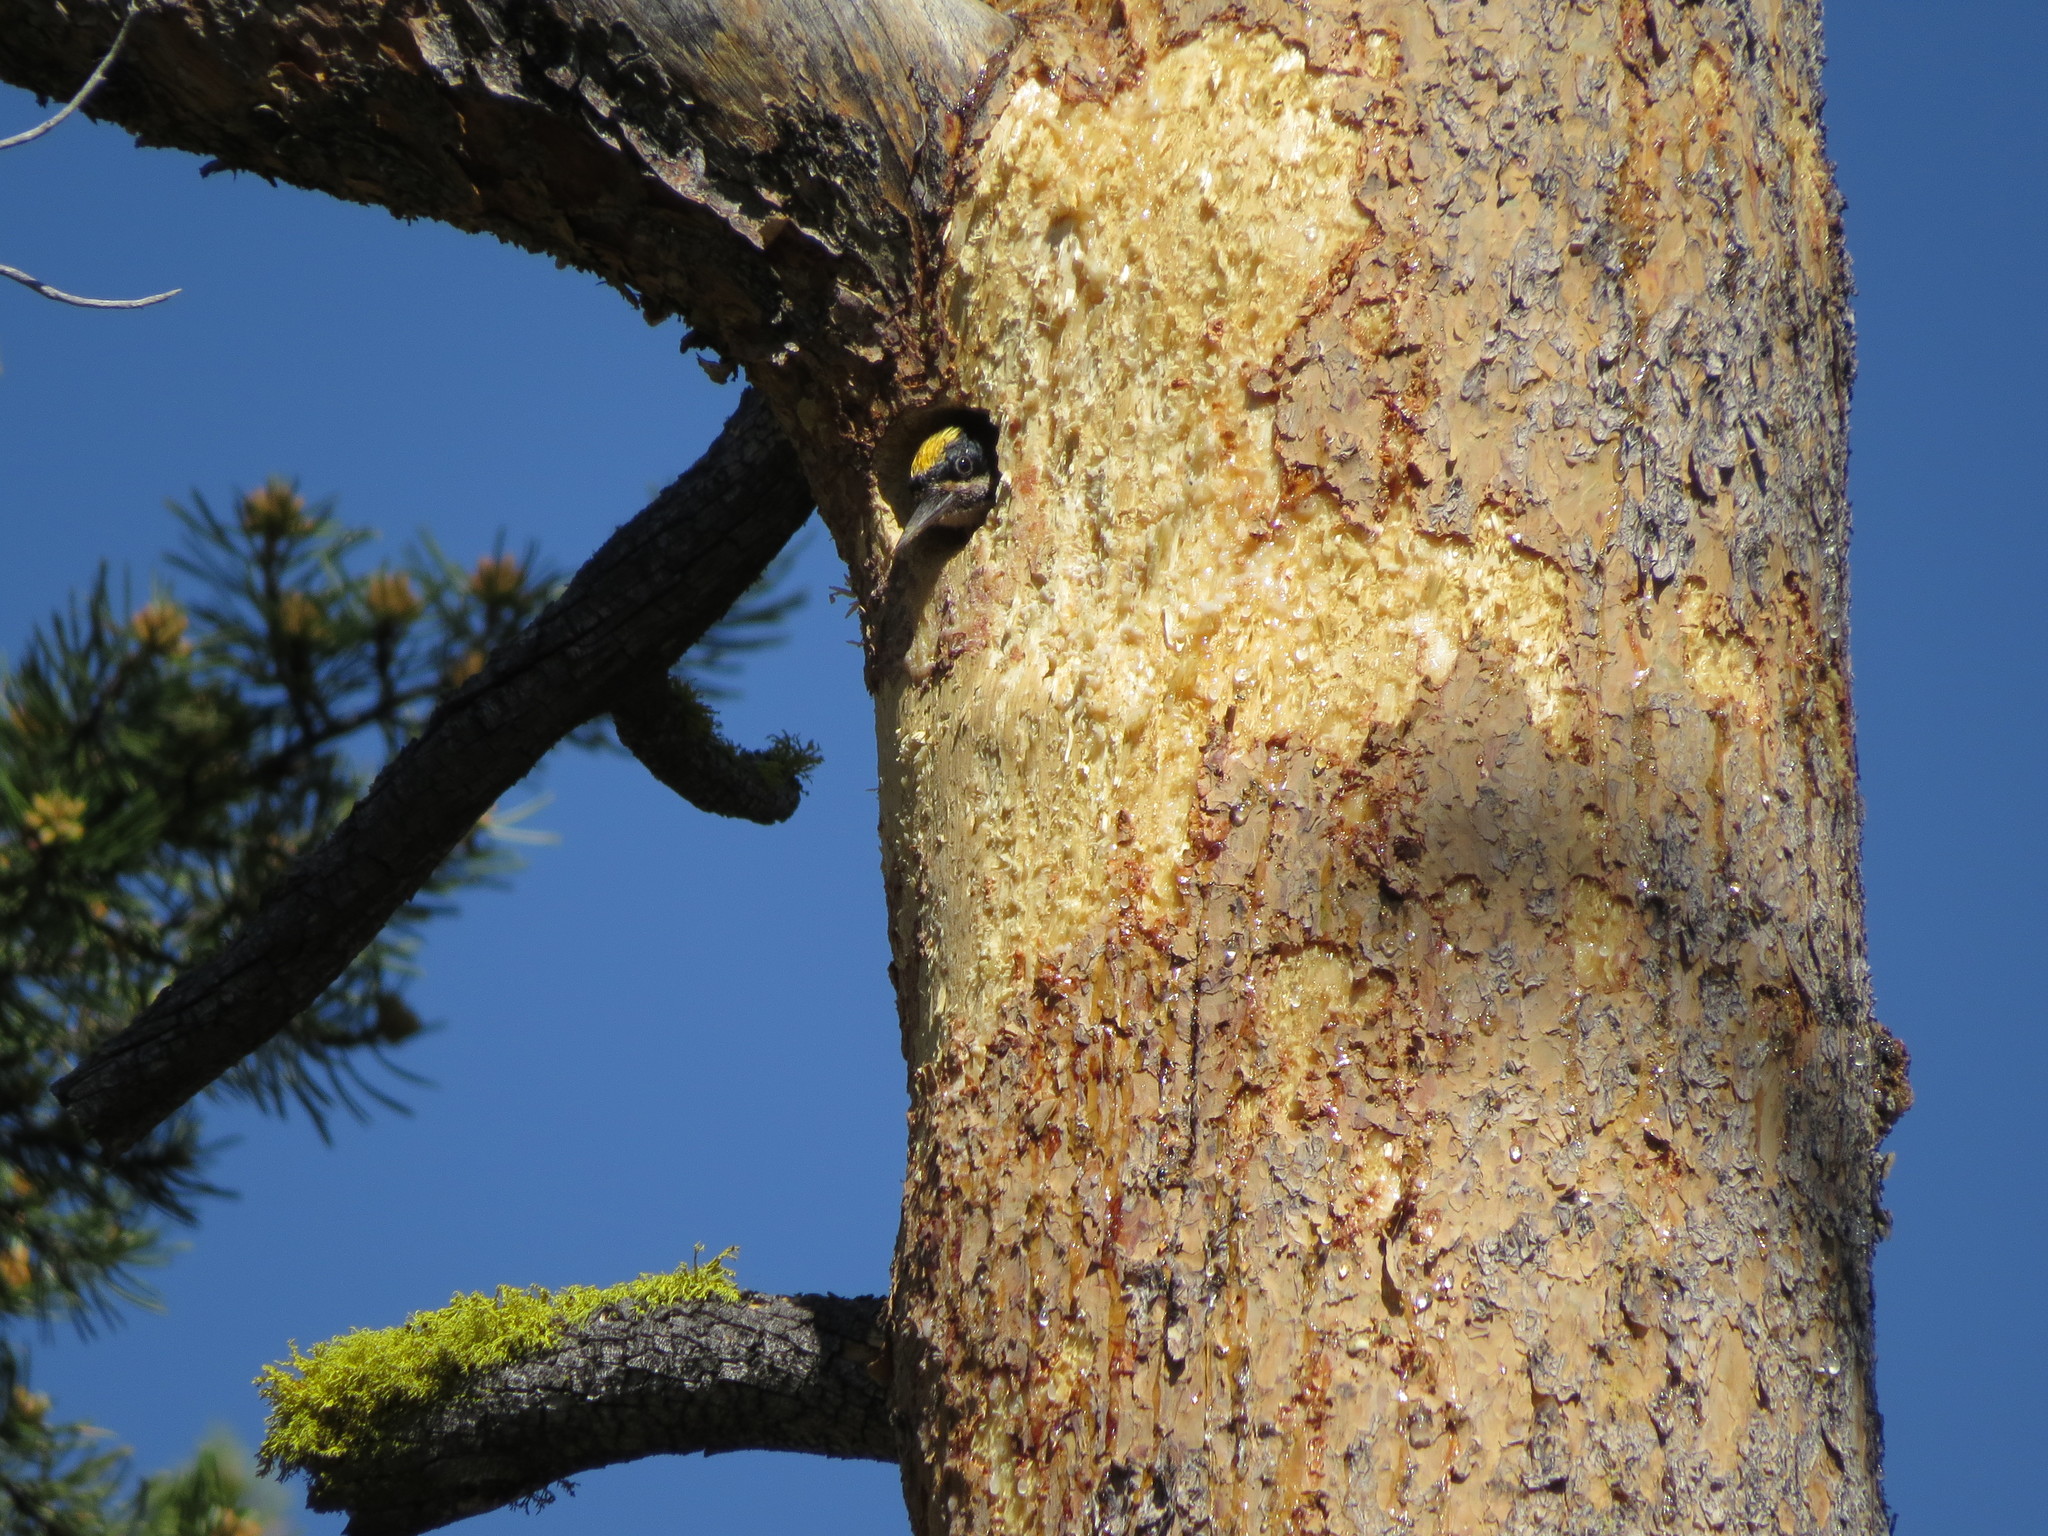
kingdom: Animalia
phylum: Chordata
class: Aves
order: Piciformes
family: Picidae
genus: Picoides
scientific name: Picoides arcticus
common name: Black-backed woodpecker
